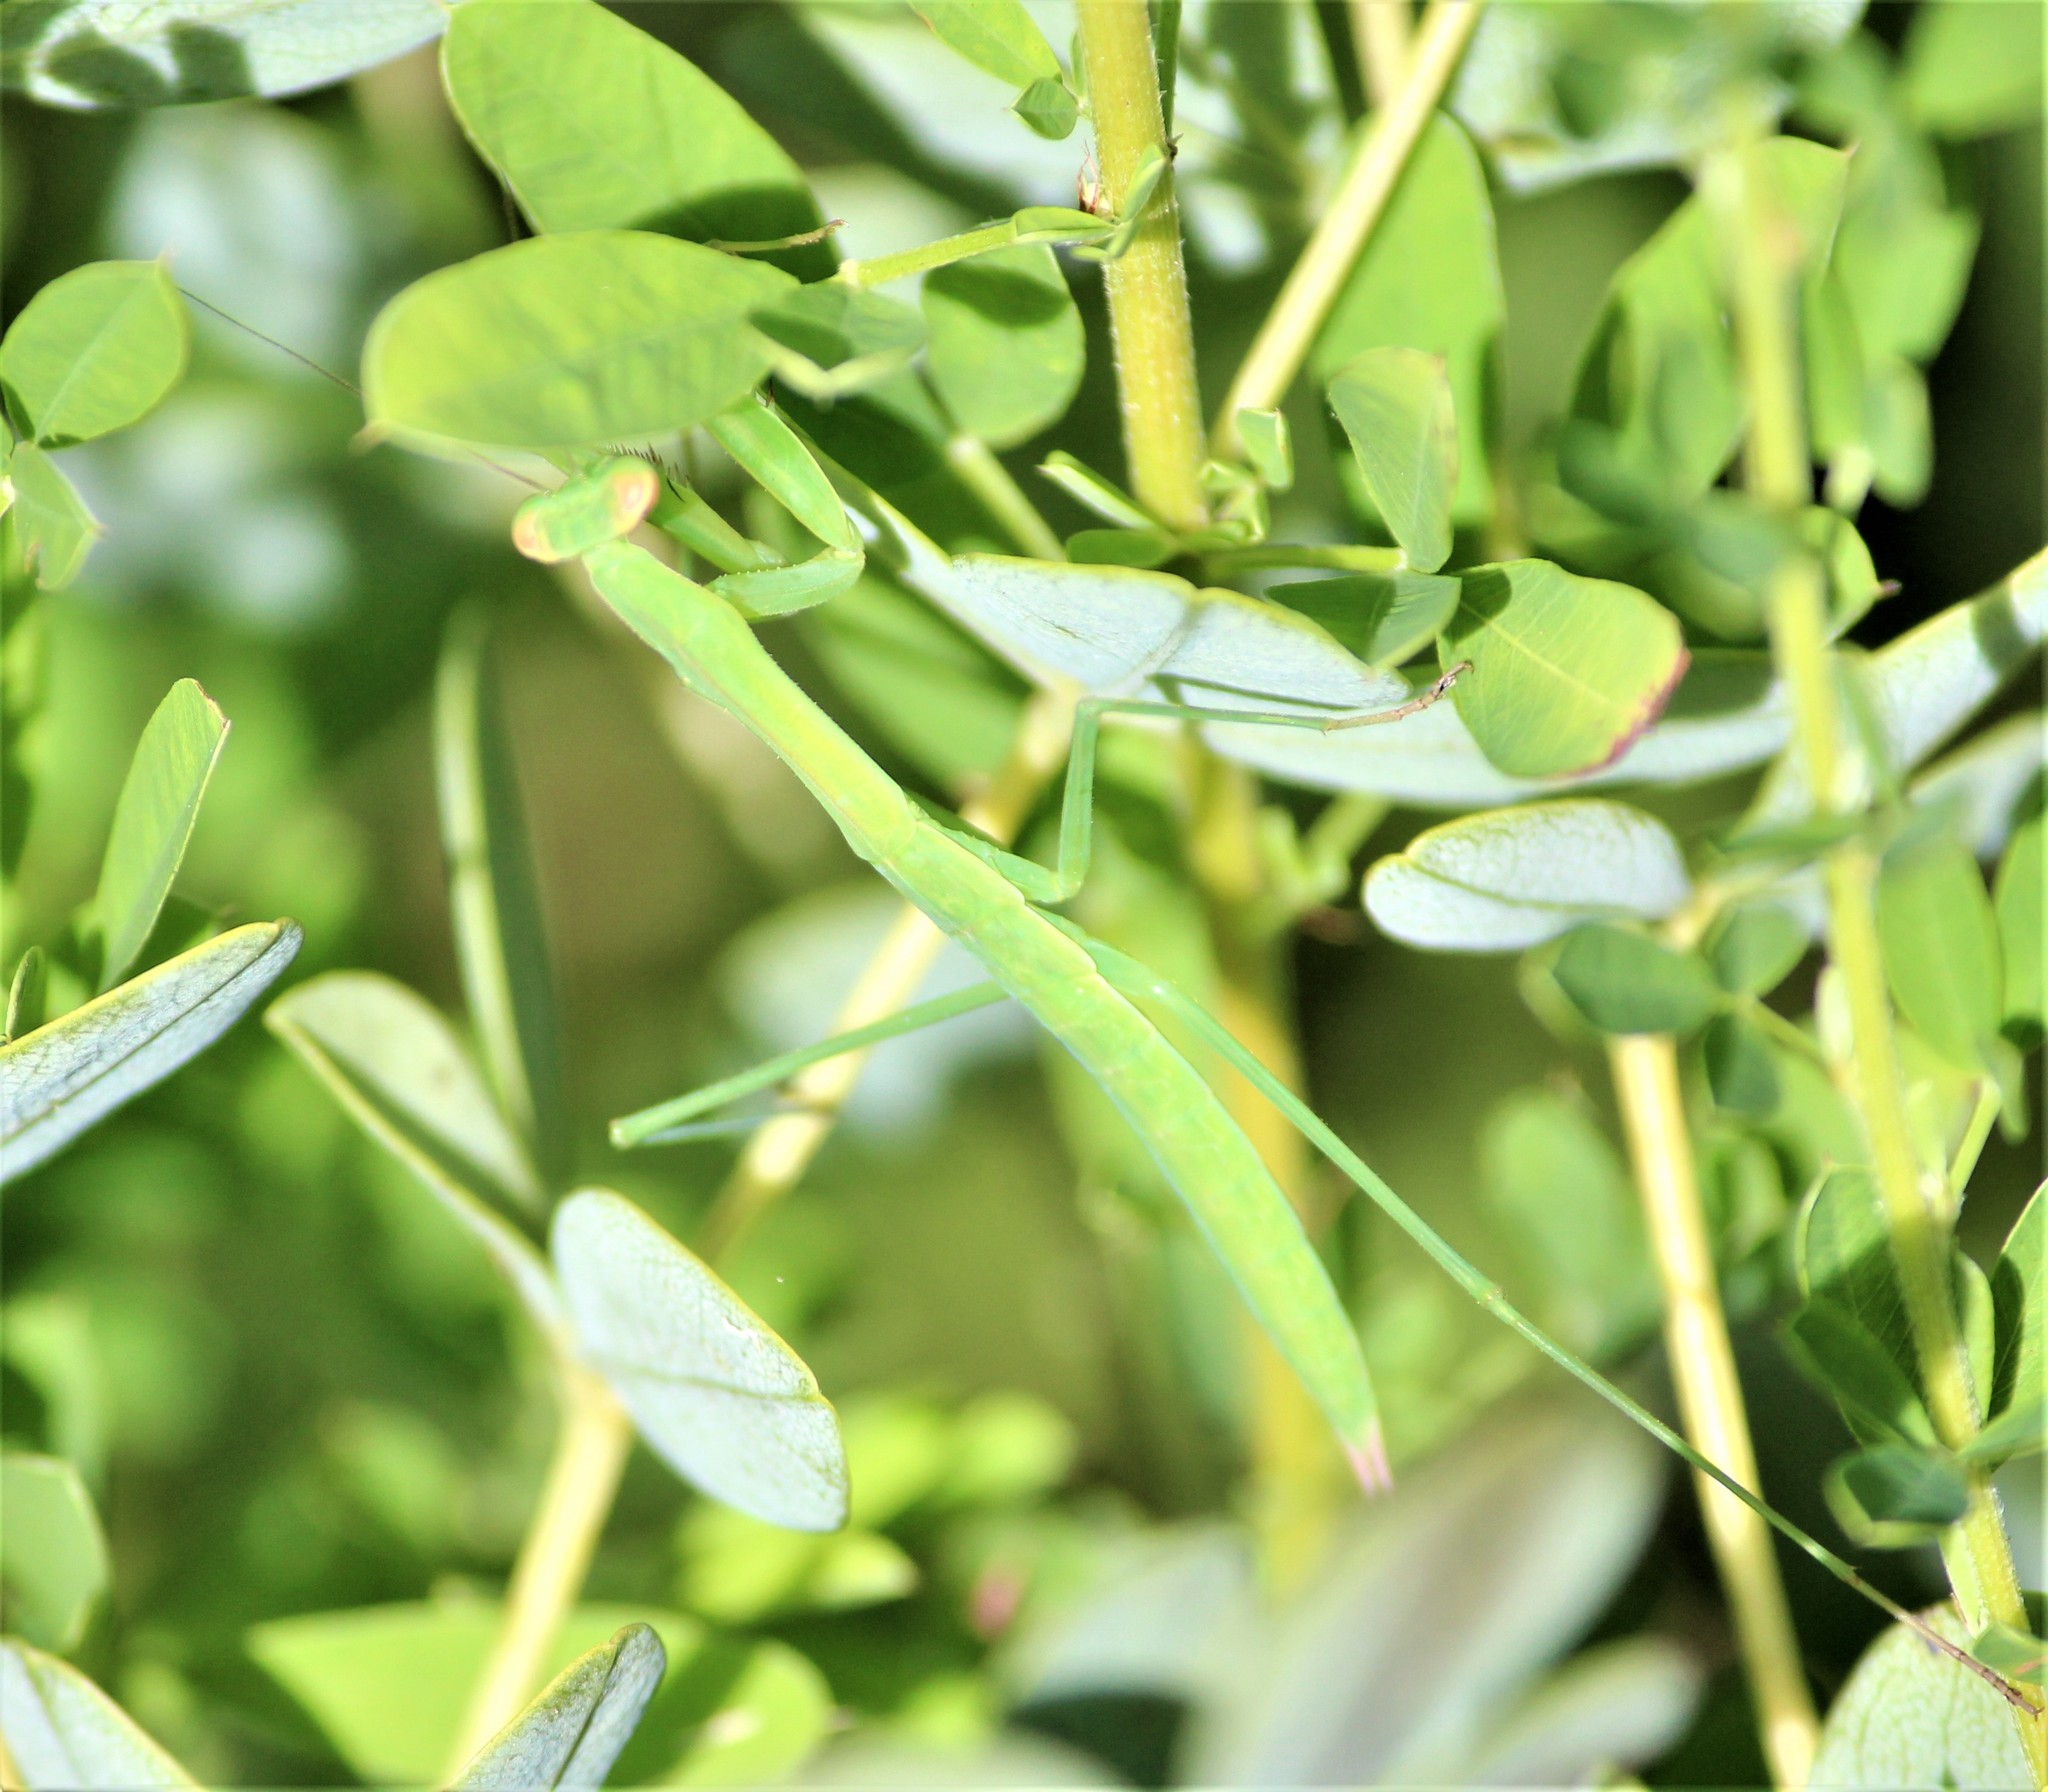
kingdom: Animalia
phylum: Arthropoda
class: Insecta
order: Mantodea
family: Mantidae
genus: Tenodera
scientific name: Tenodera sinensis
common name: Chinese mantis
